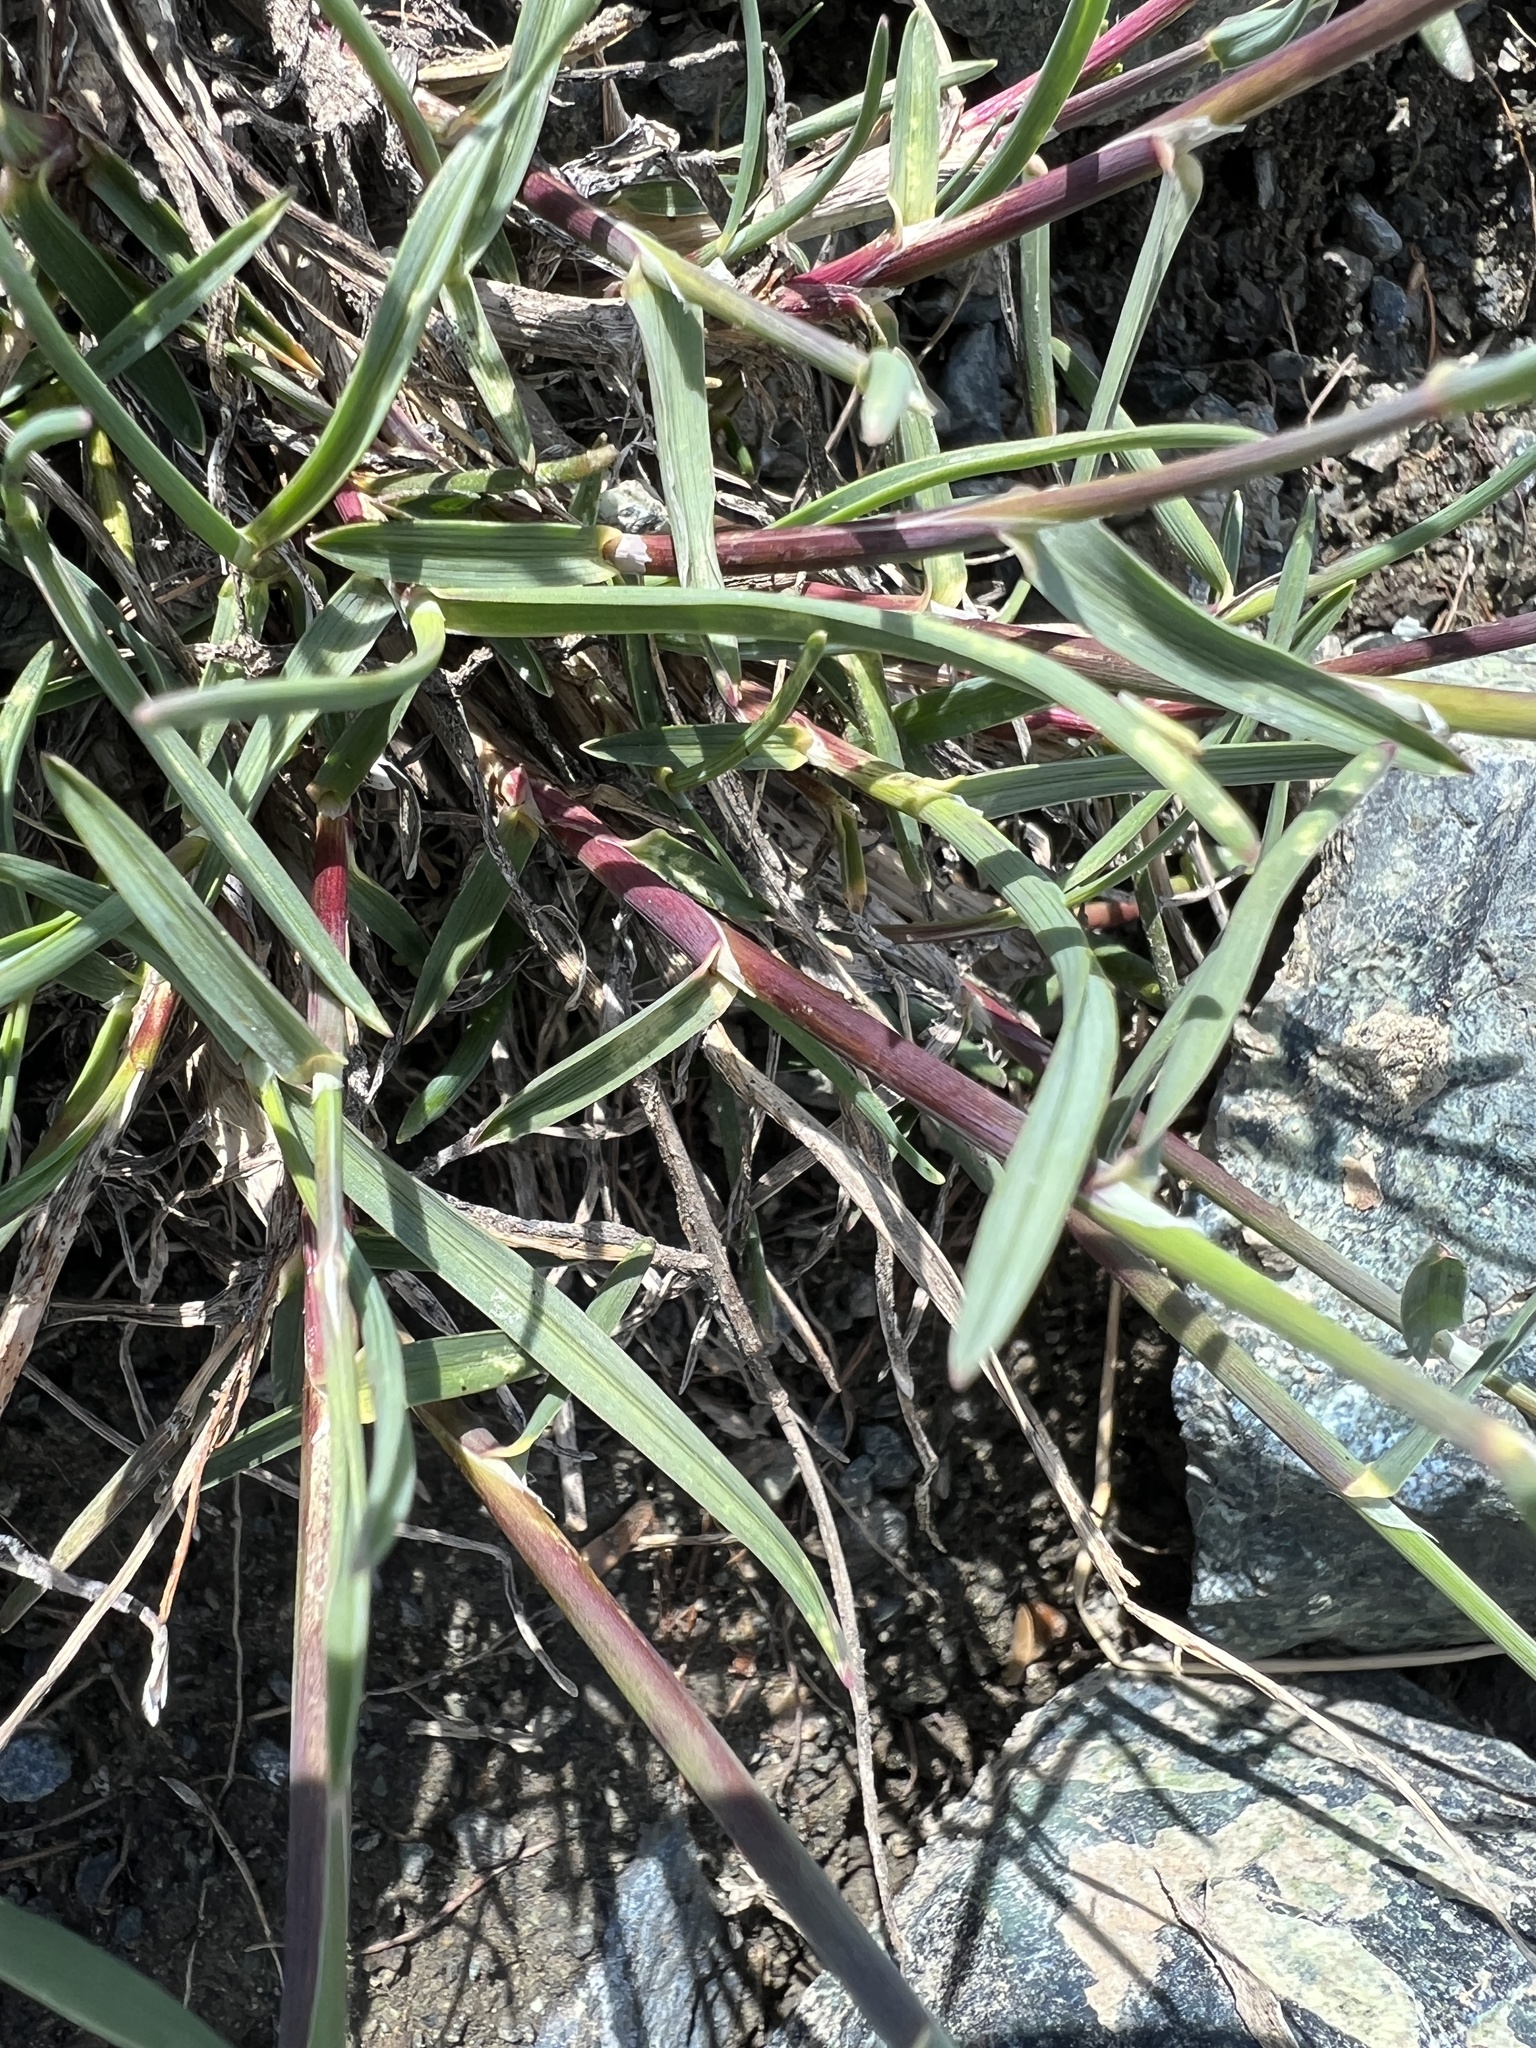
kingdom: Plantae
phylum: Tracheophyta
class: Liliopsida
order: Poales
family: Poaceae
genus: Poa
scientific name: Poa curtifolia
